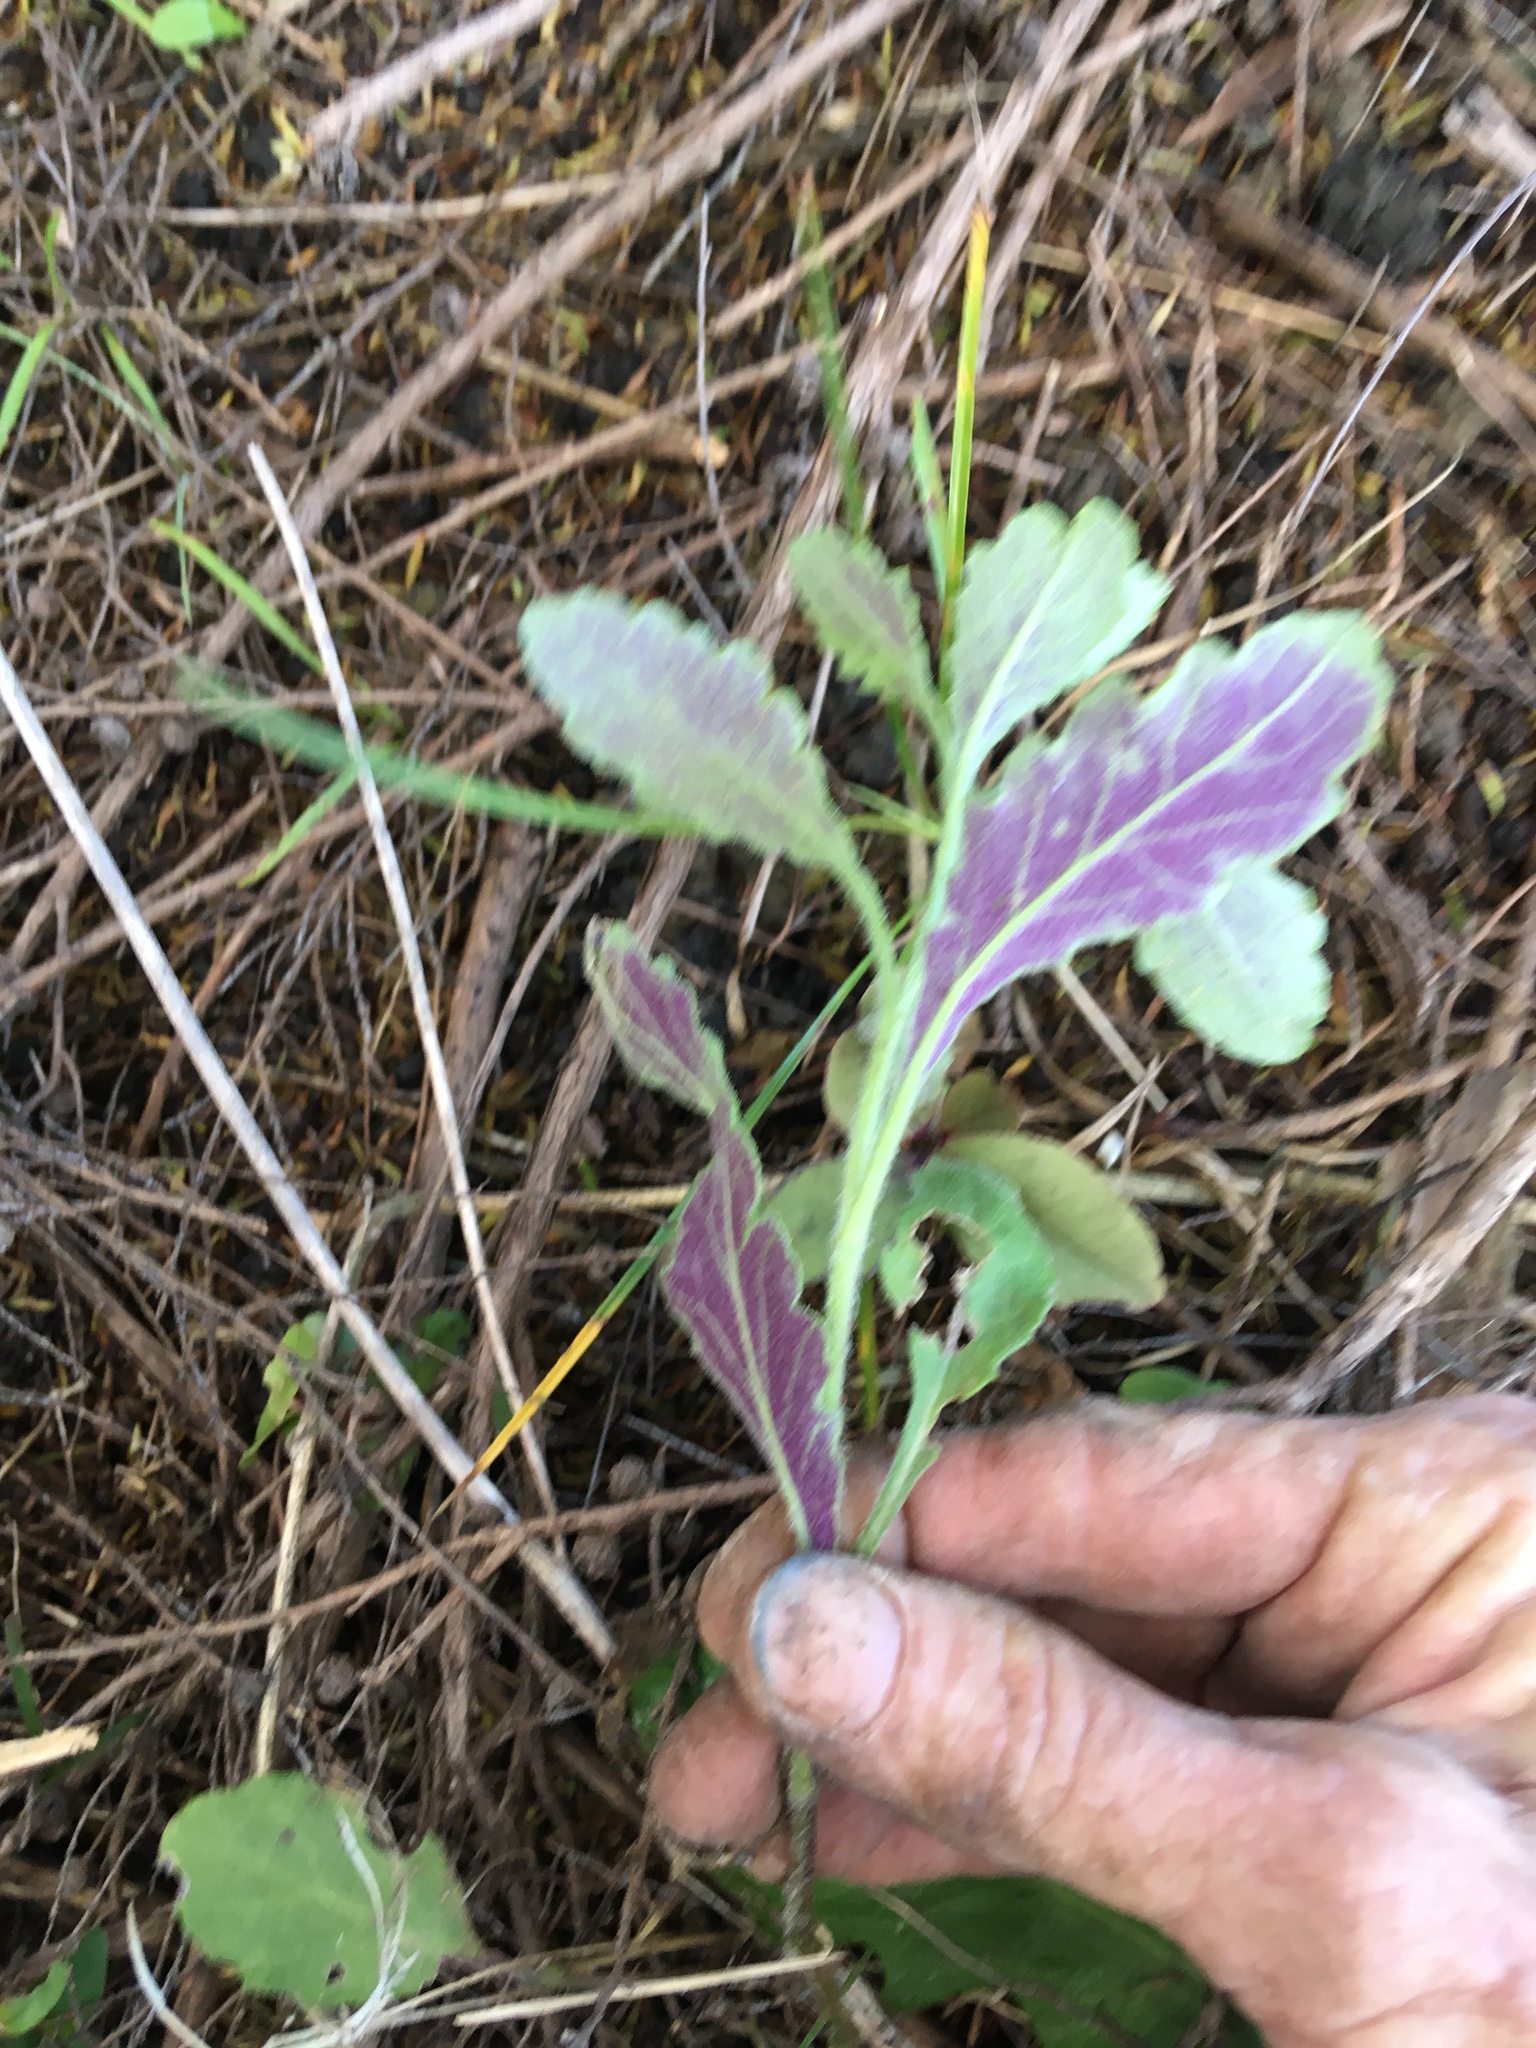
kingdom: Plantae
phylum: Tracheophyta
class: Magnoliopsida
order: Asterales
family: Asteraceae
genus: Senecio
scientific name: Senecio glomeratus
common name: Cutleaf burnweed
